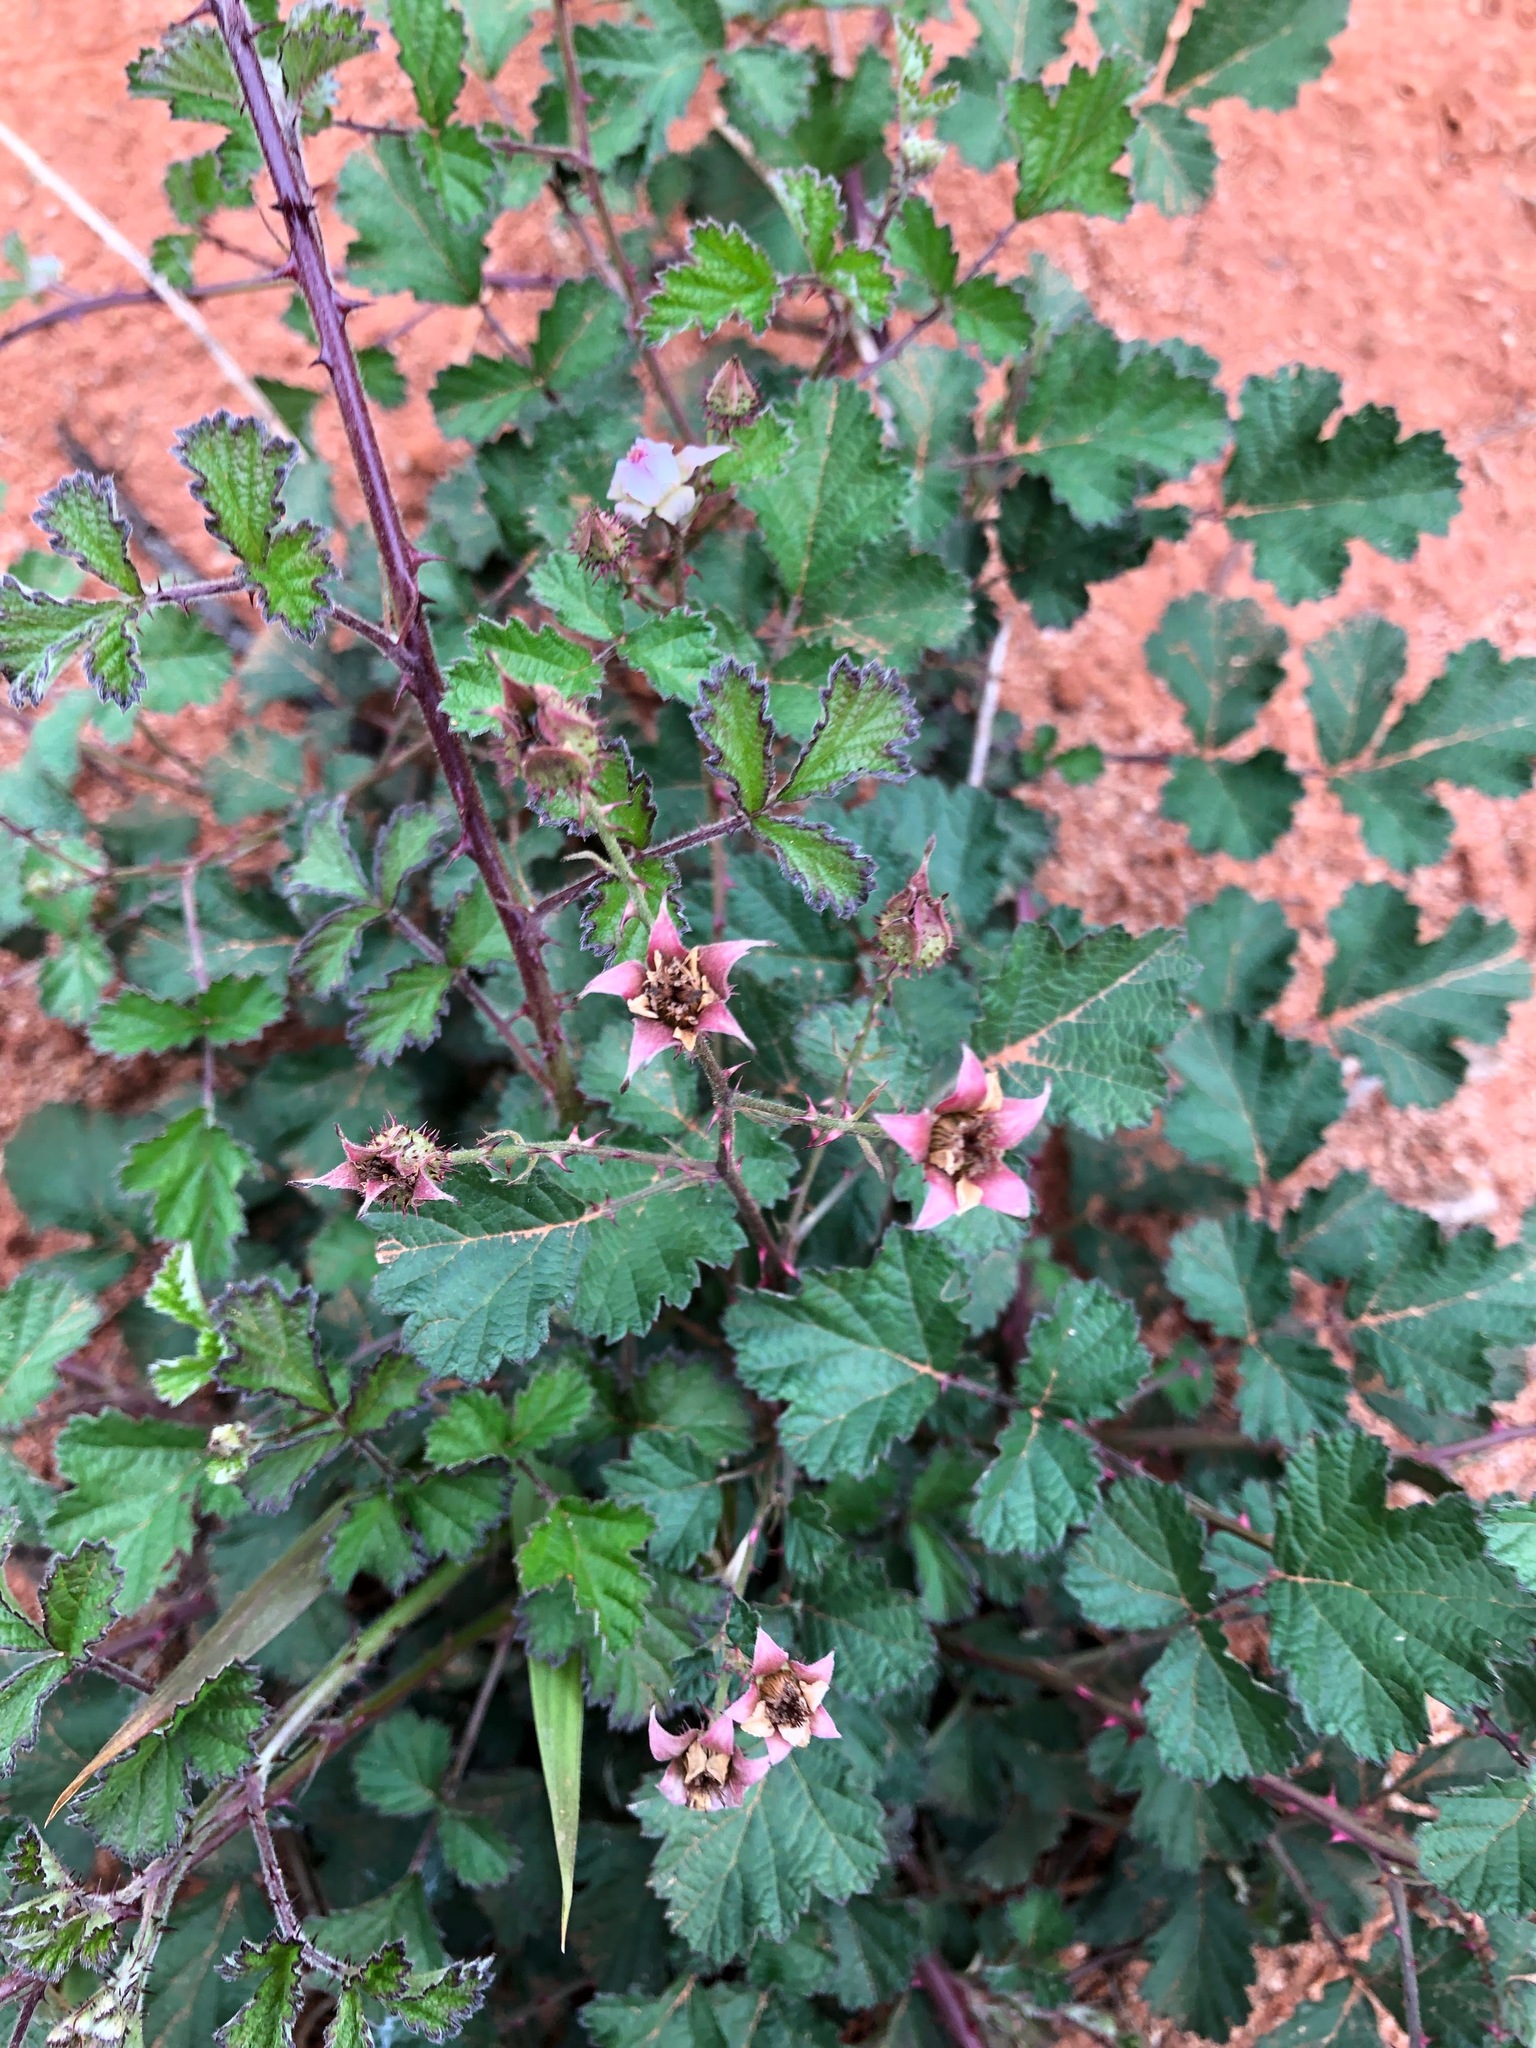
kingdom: Plantae
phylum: Tracheophyta
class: Magnoliopsida
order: Rosales
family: Rosaceae
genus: Rubus
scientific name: Rubus parvifolius
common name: Threeleaf blackberry
